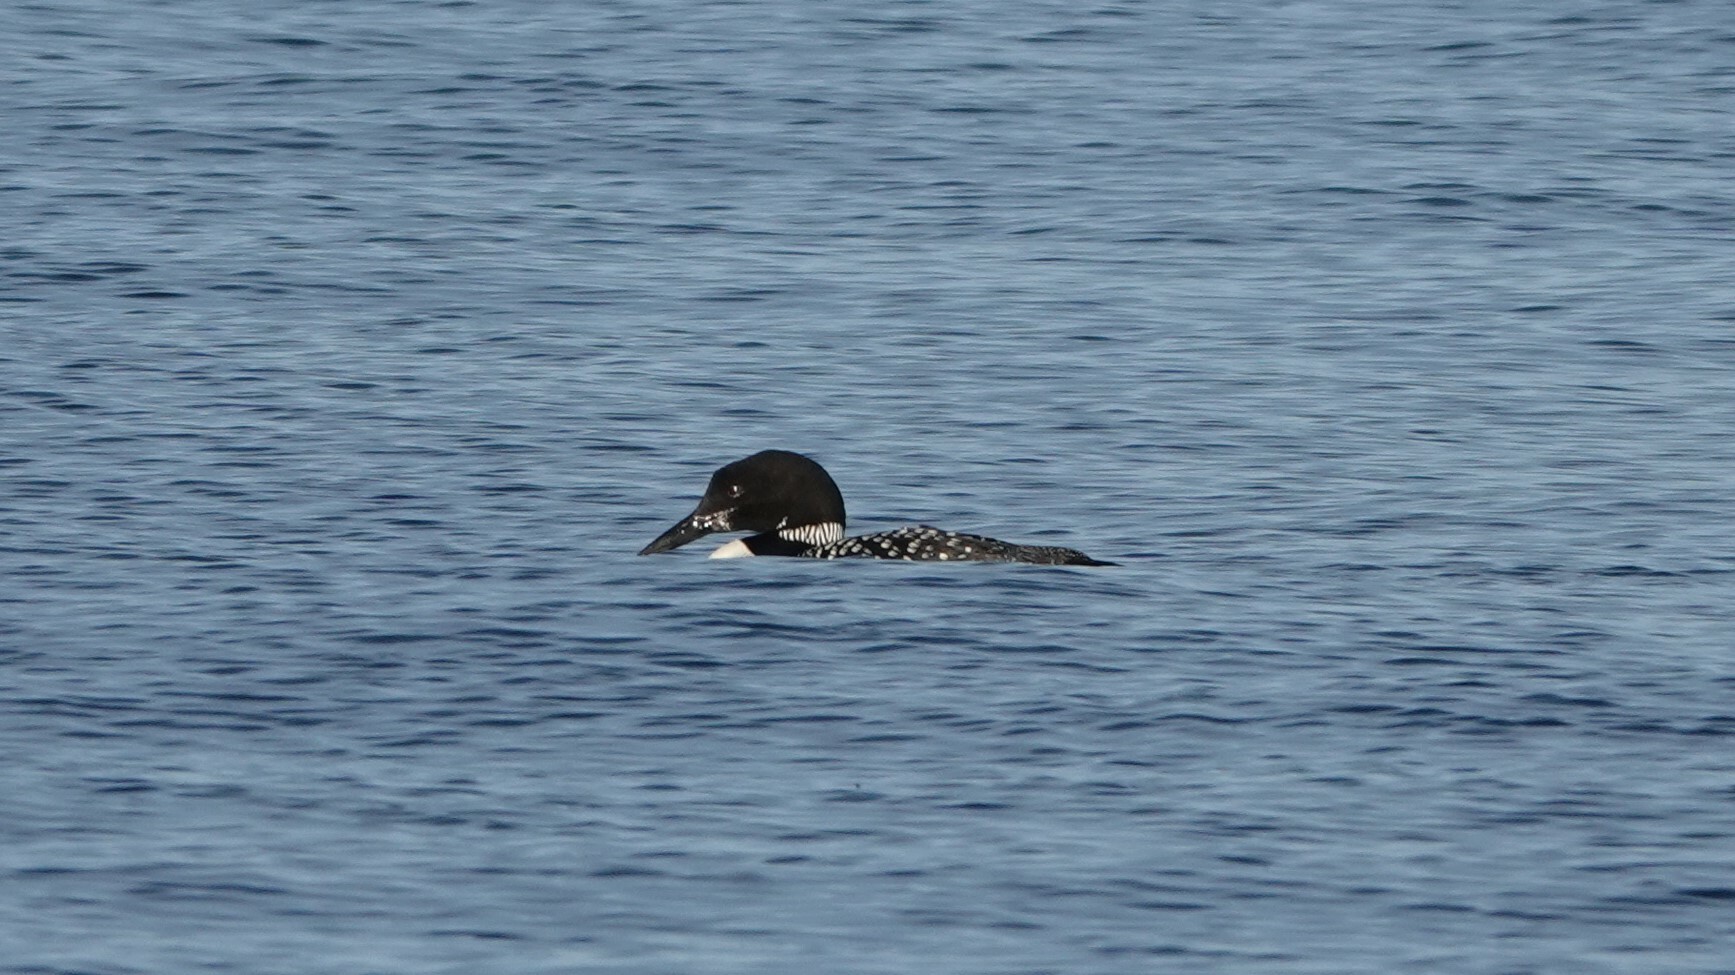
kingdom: Animalia
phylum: Chordata
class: Aves
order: Gaviiformes
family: Gaviidae
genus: Gavia
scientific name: Gavia immer
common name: Common loon
